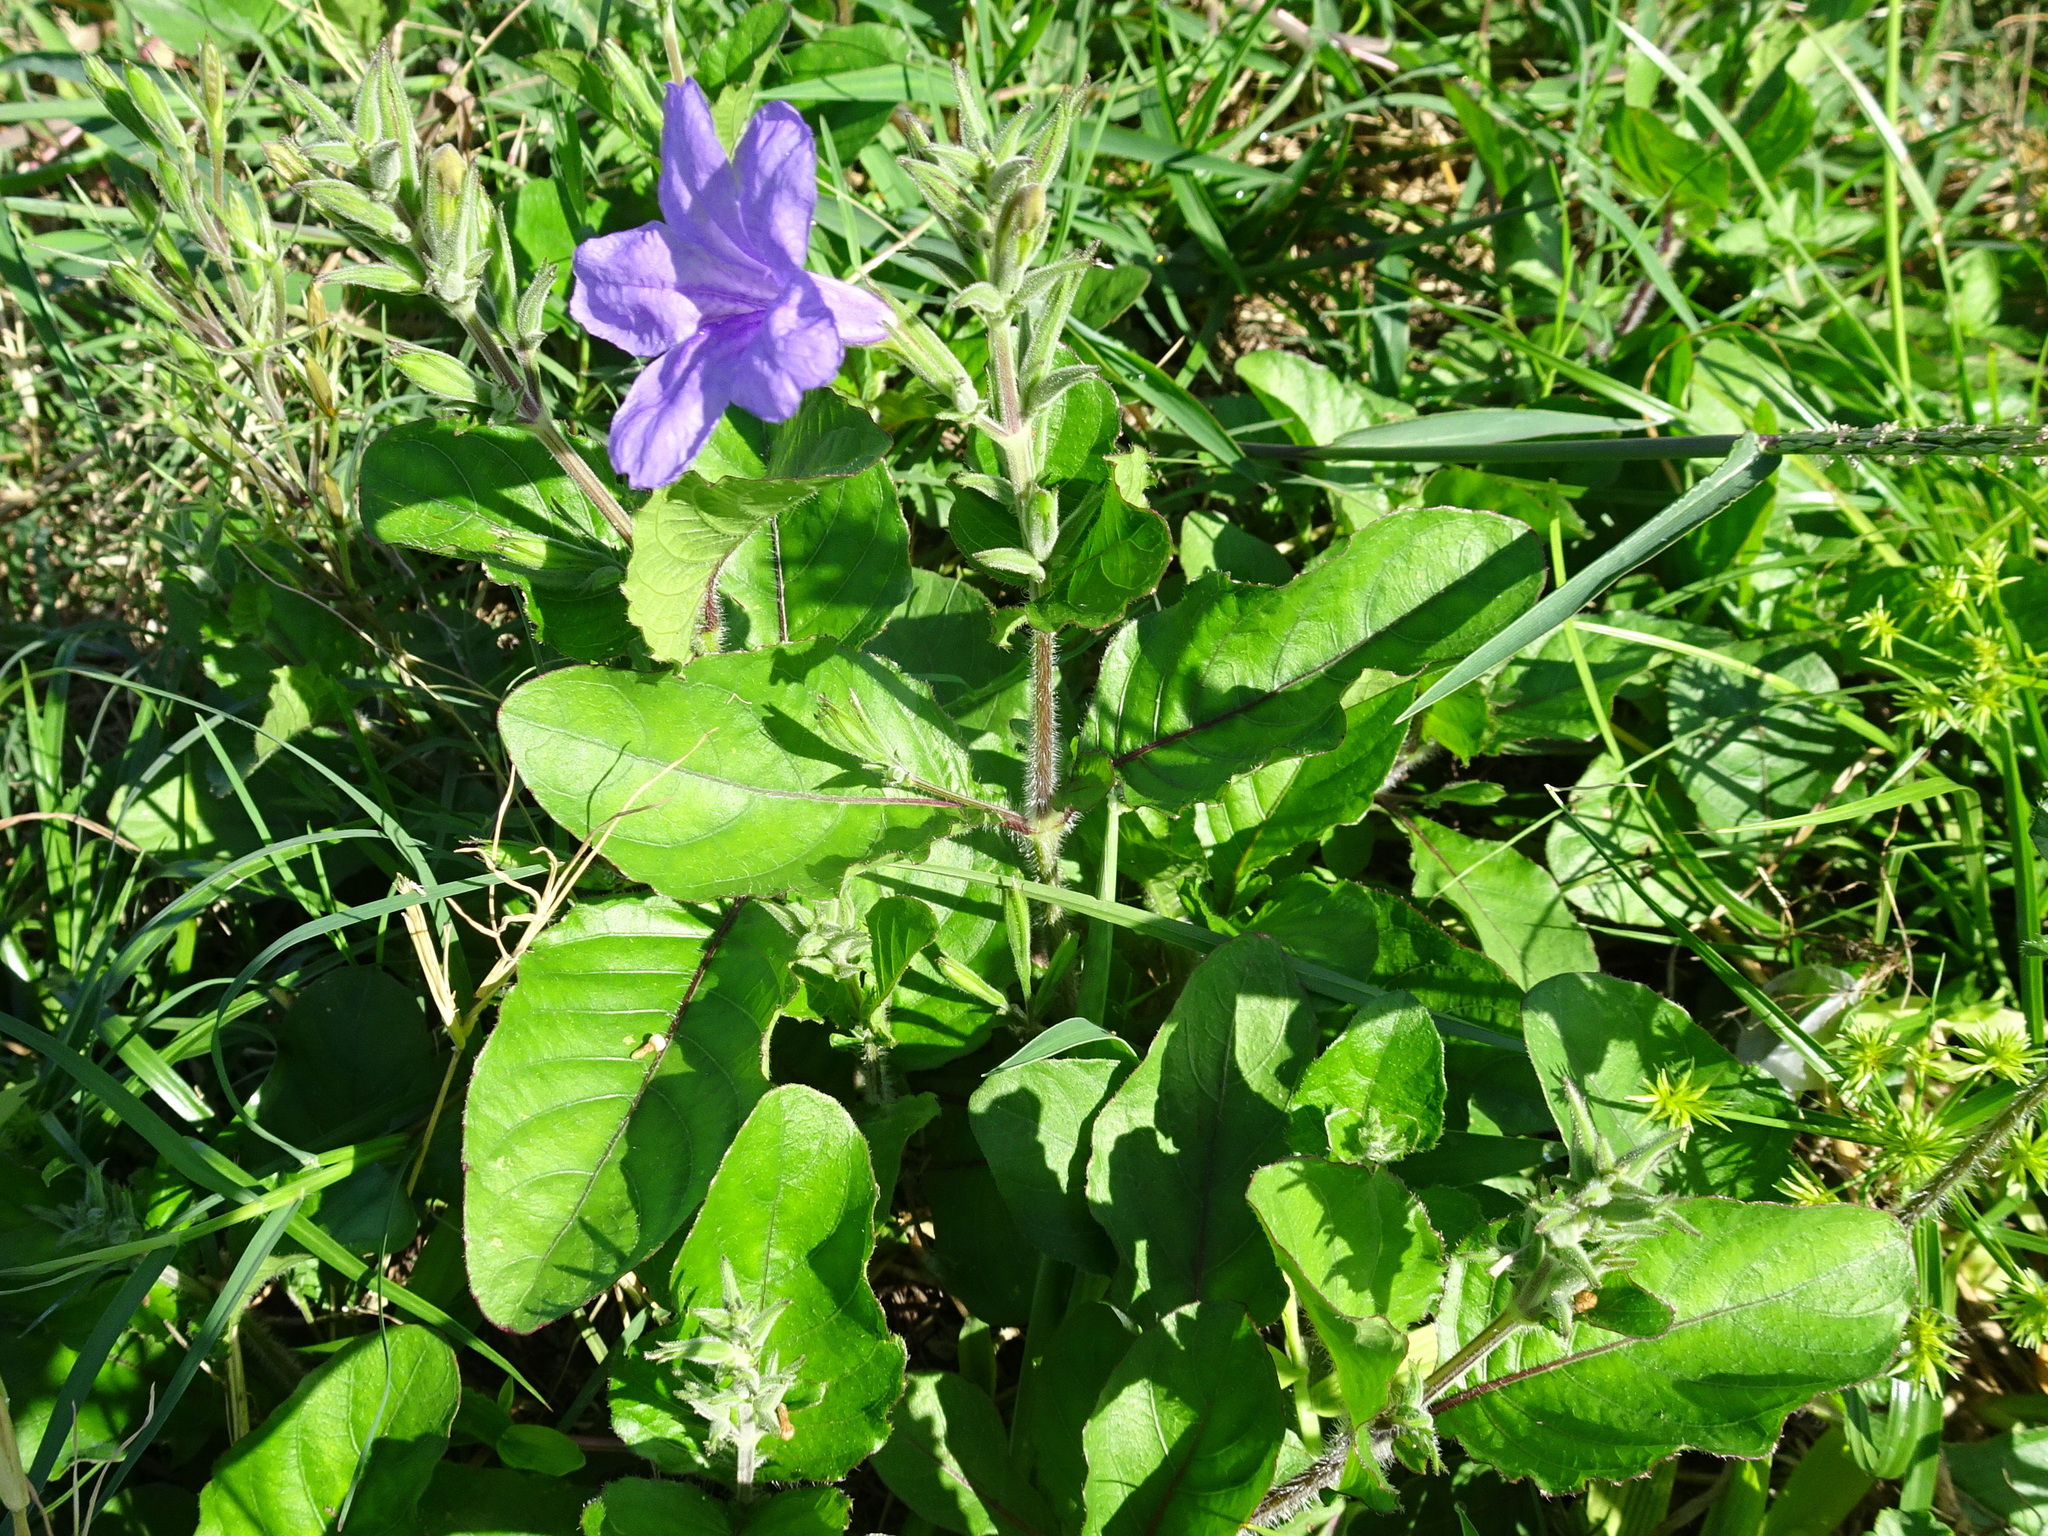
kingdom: Plantae
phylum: Tracheophyta
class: Magnoliopsida
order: Lamiales
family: Acanthaceae
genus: Ruellia
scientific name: Ruellia ciliatiflora
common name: Hairyflower wild petunia
